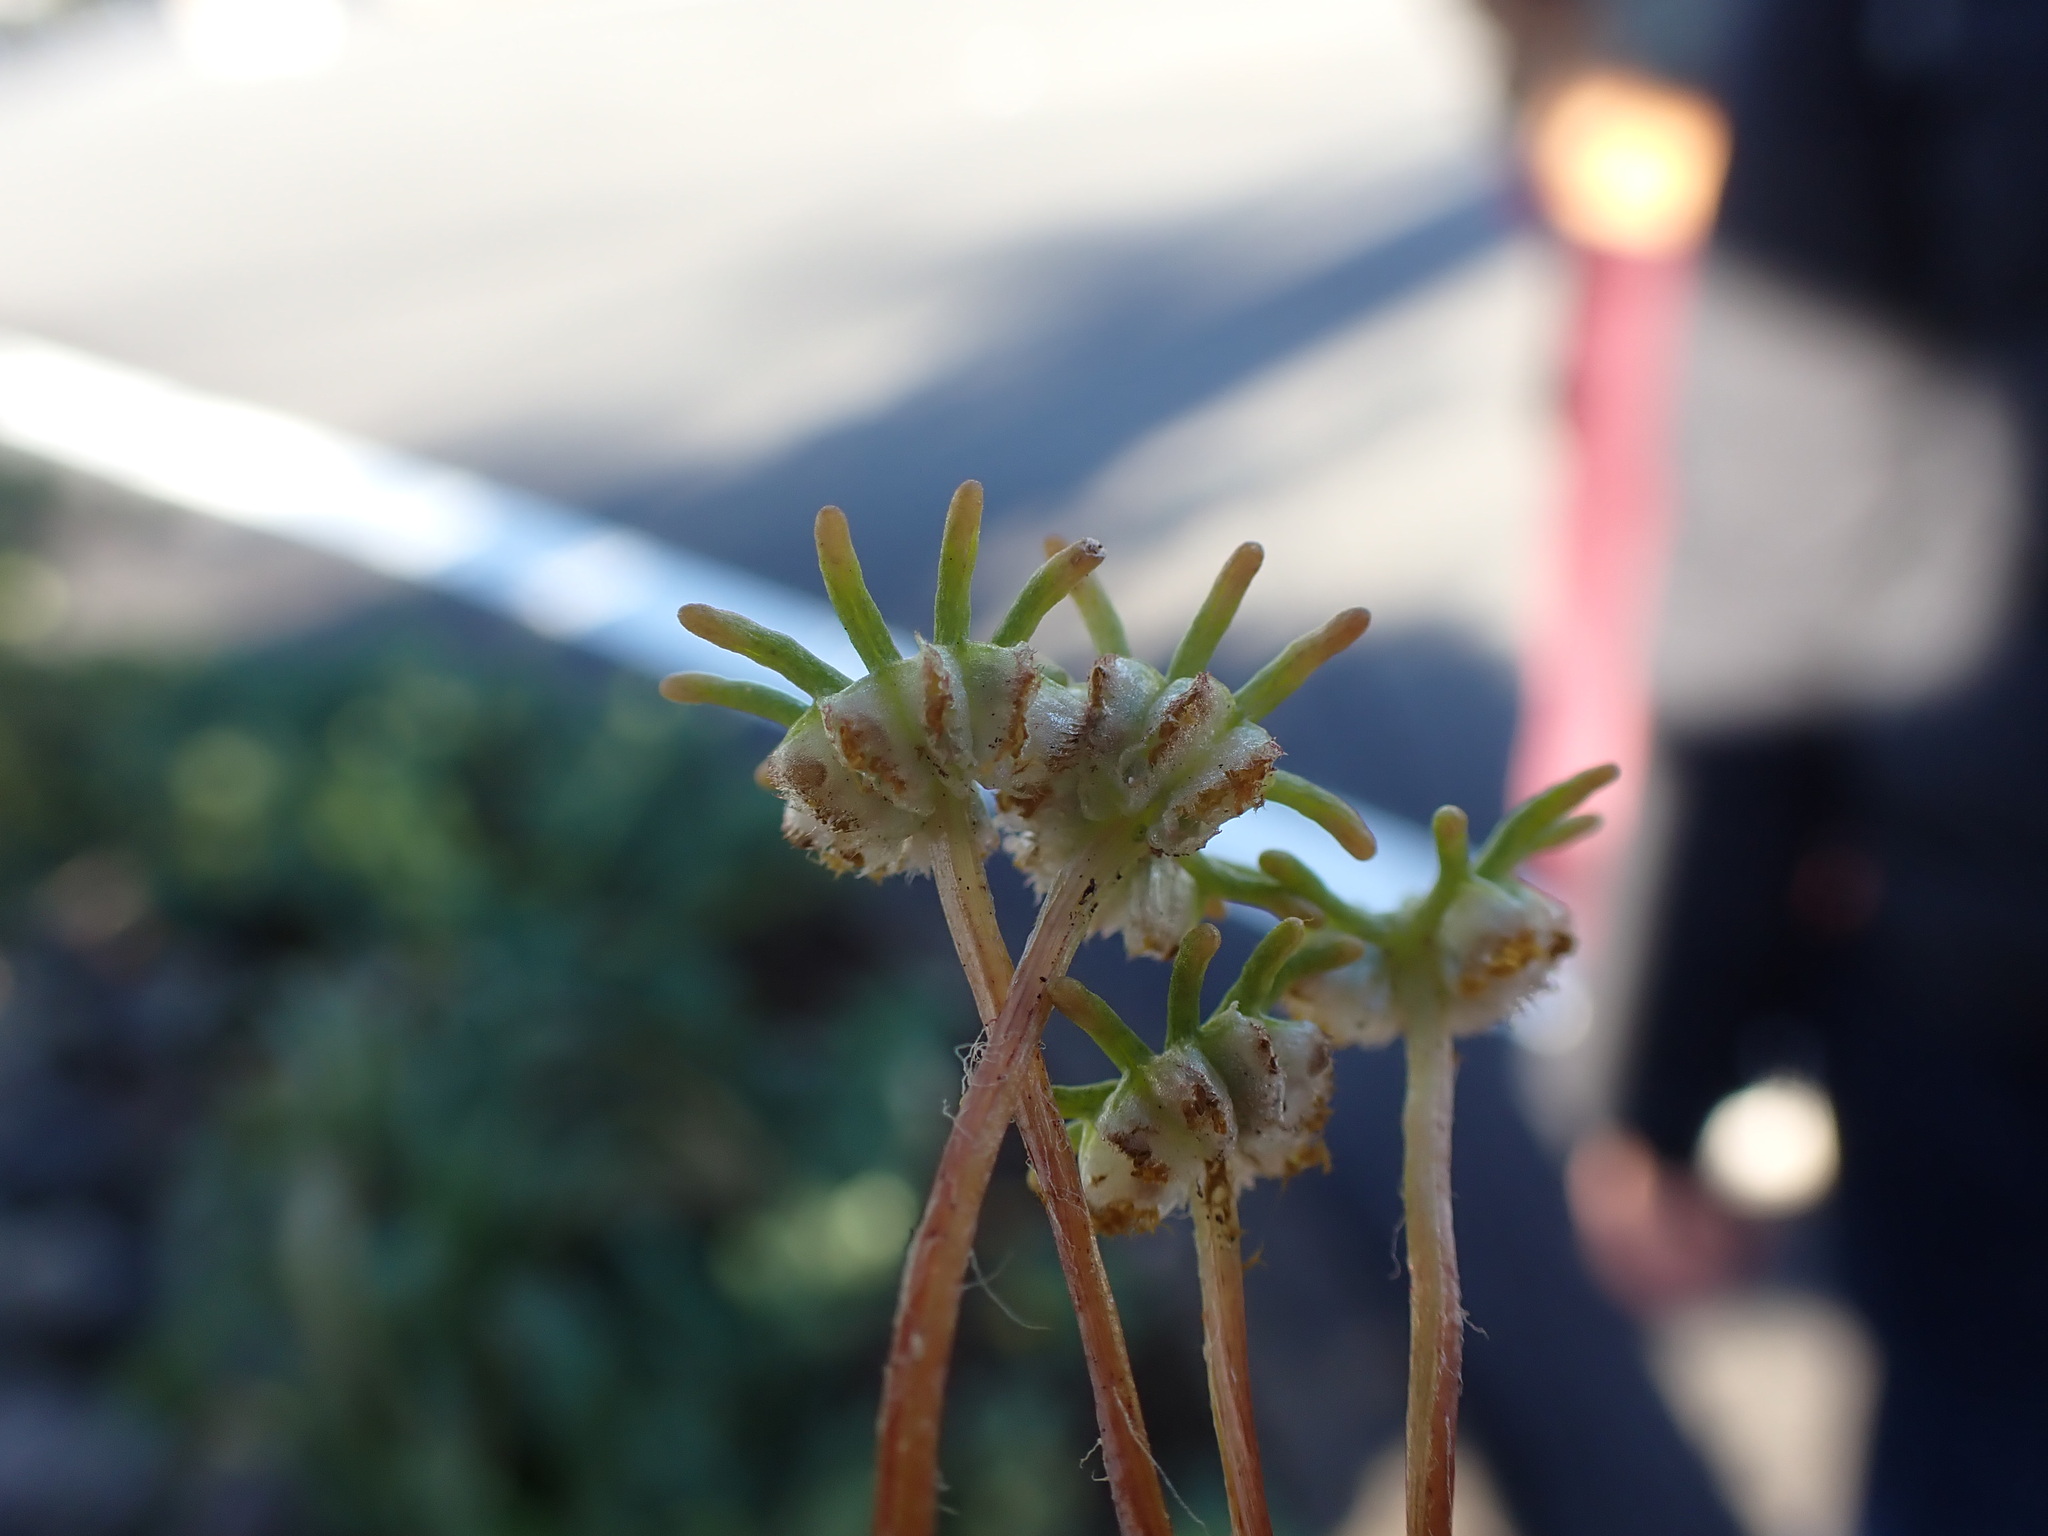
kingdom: Plantae
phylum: Marchantiophyta
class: Marchantiopsida
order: Marchantiales
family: Marchantiaceae
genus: Marchantia
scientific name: Marchantia polymorpha
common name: Common liverwort
